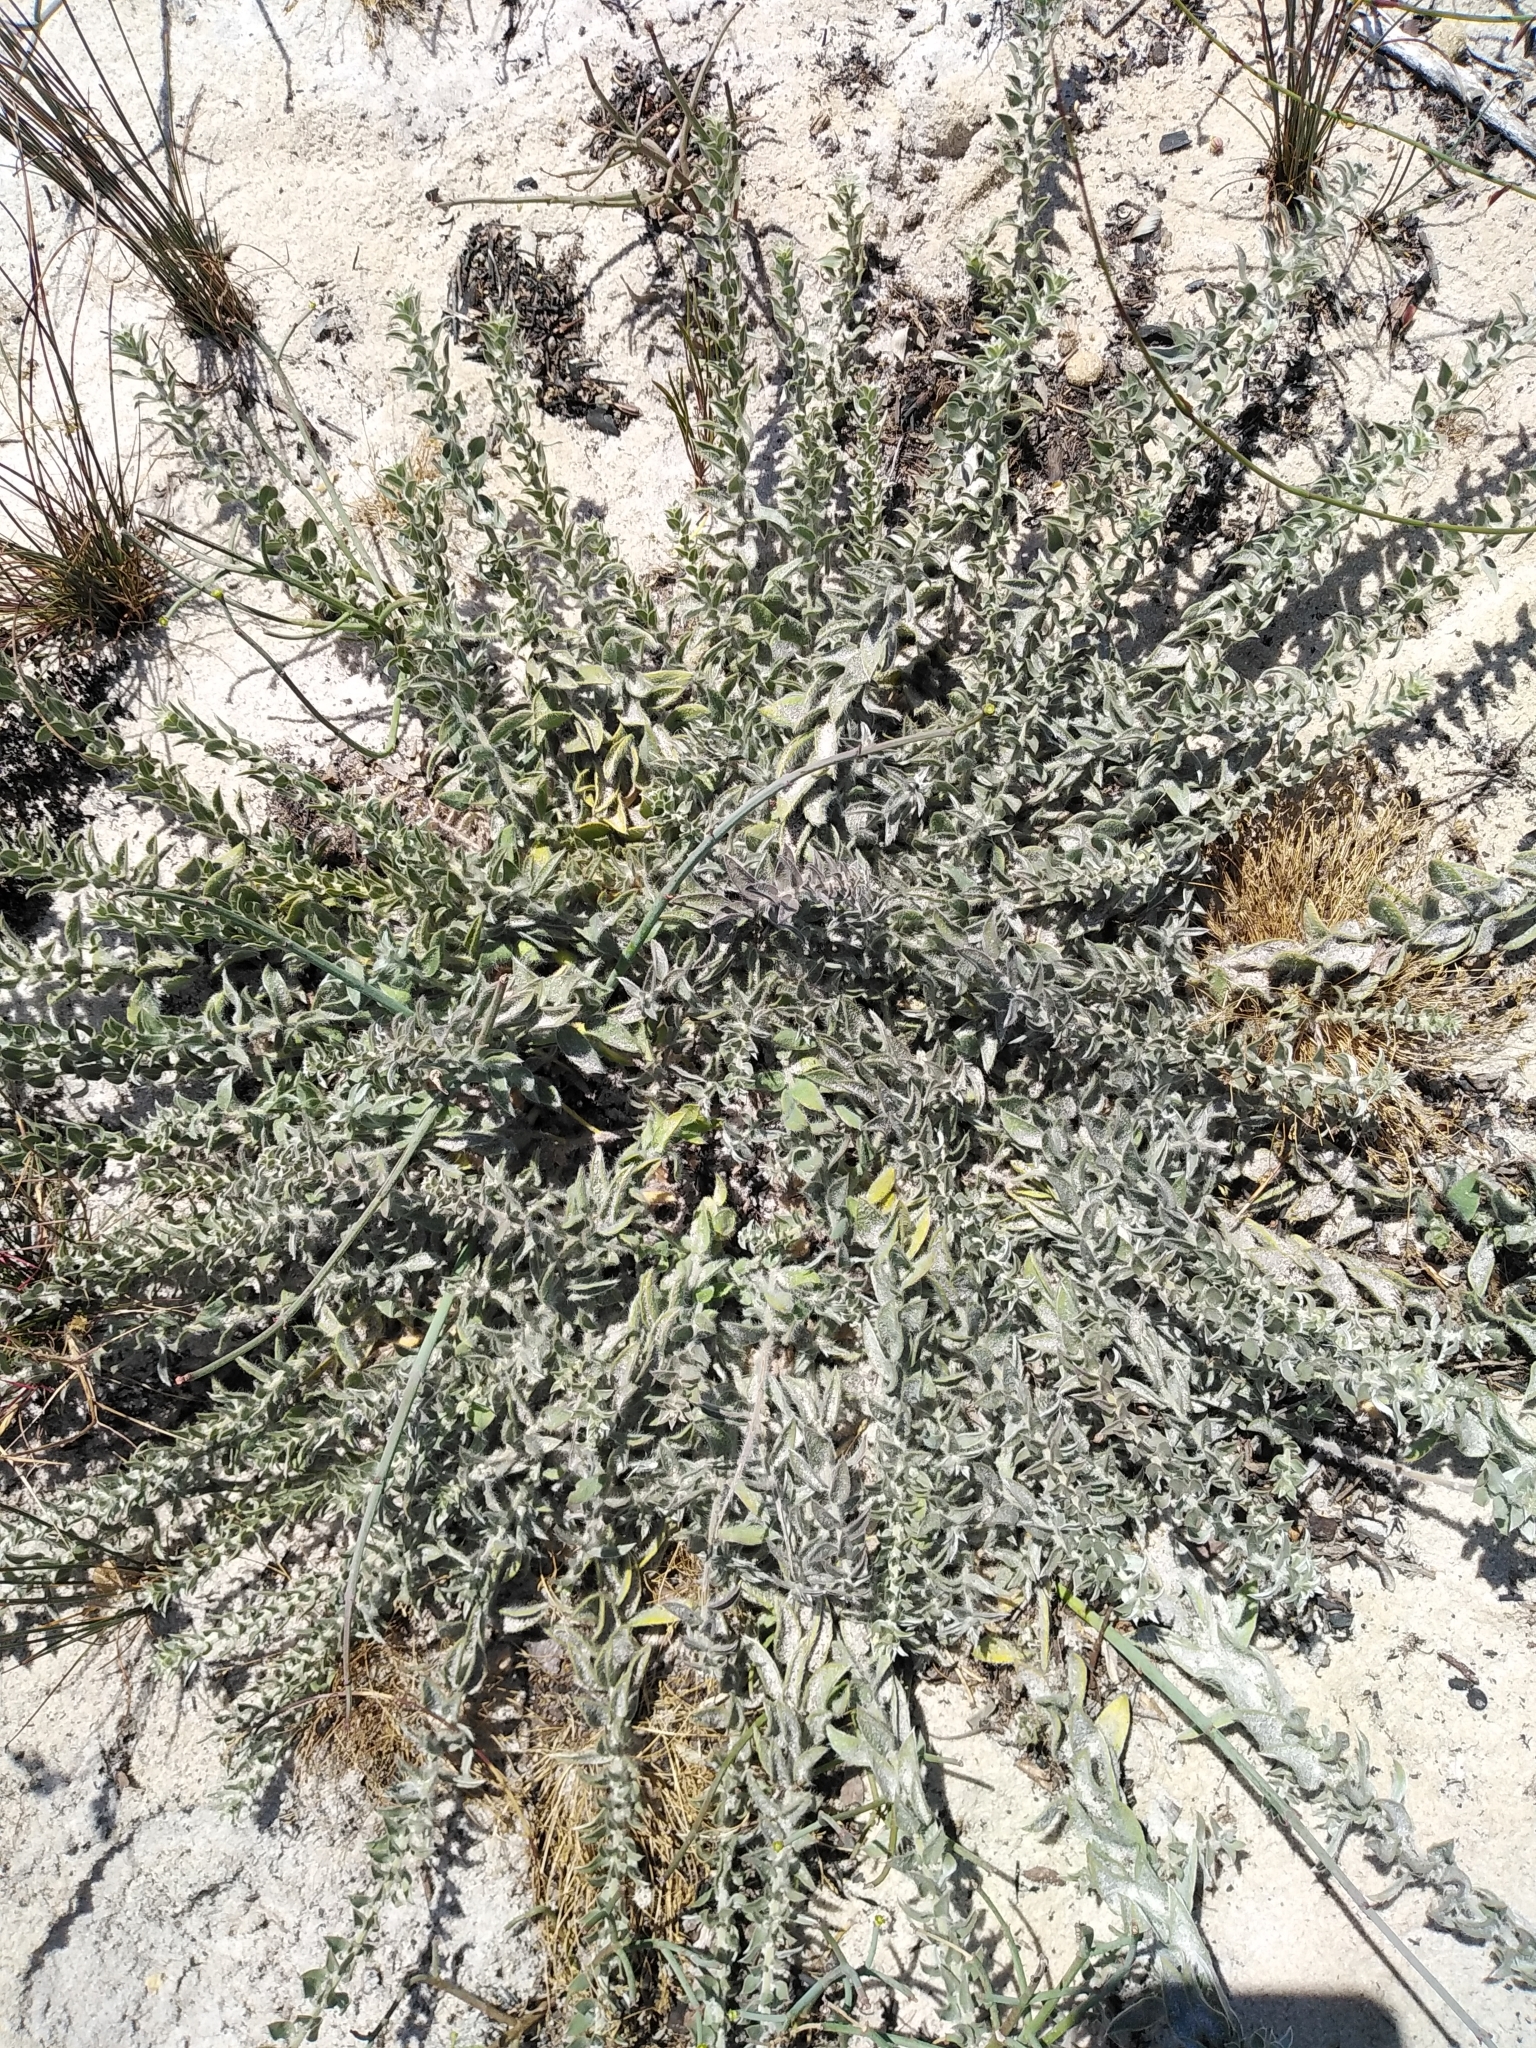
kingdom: Plantae
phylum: Tracheophyta
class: Magnoliopsida
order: Fabales
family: Fabaceae
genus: Xiphotheca
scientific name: Xiphotheca reflexa
